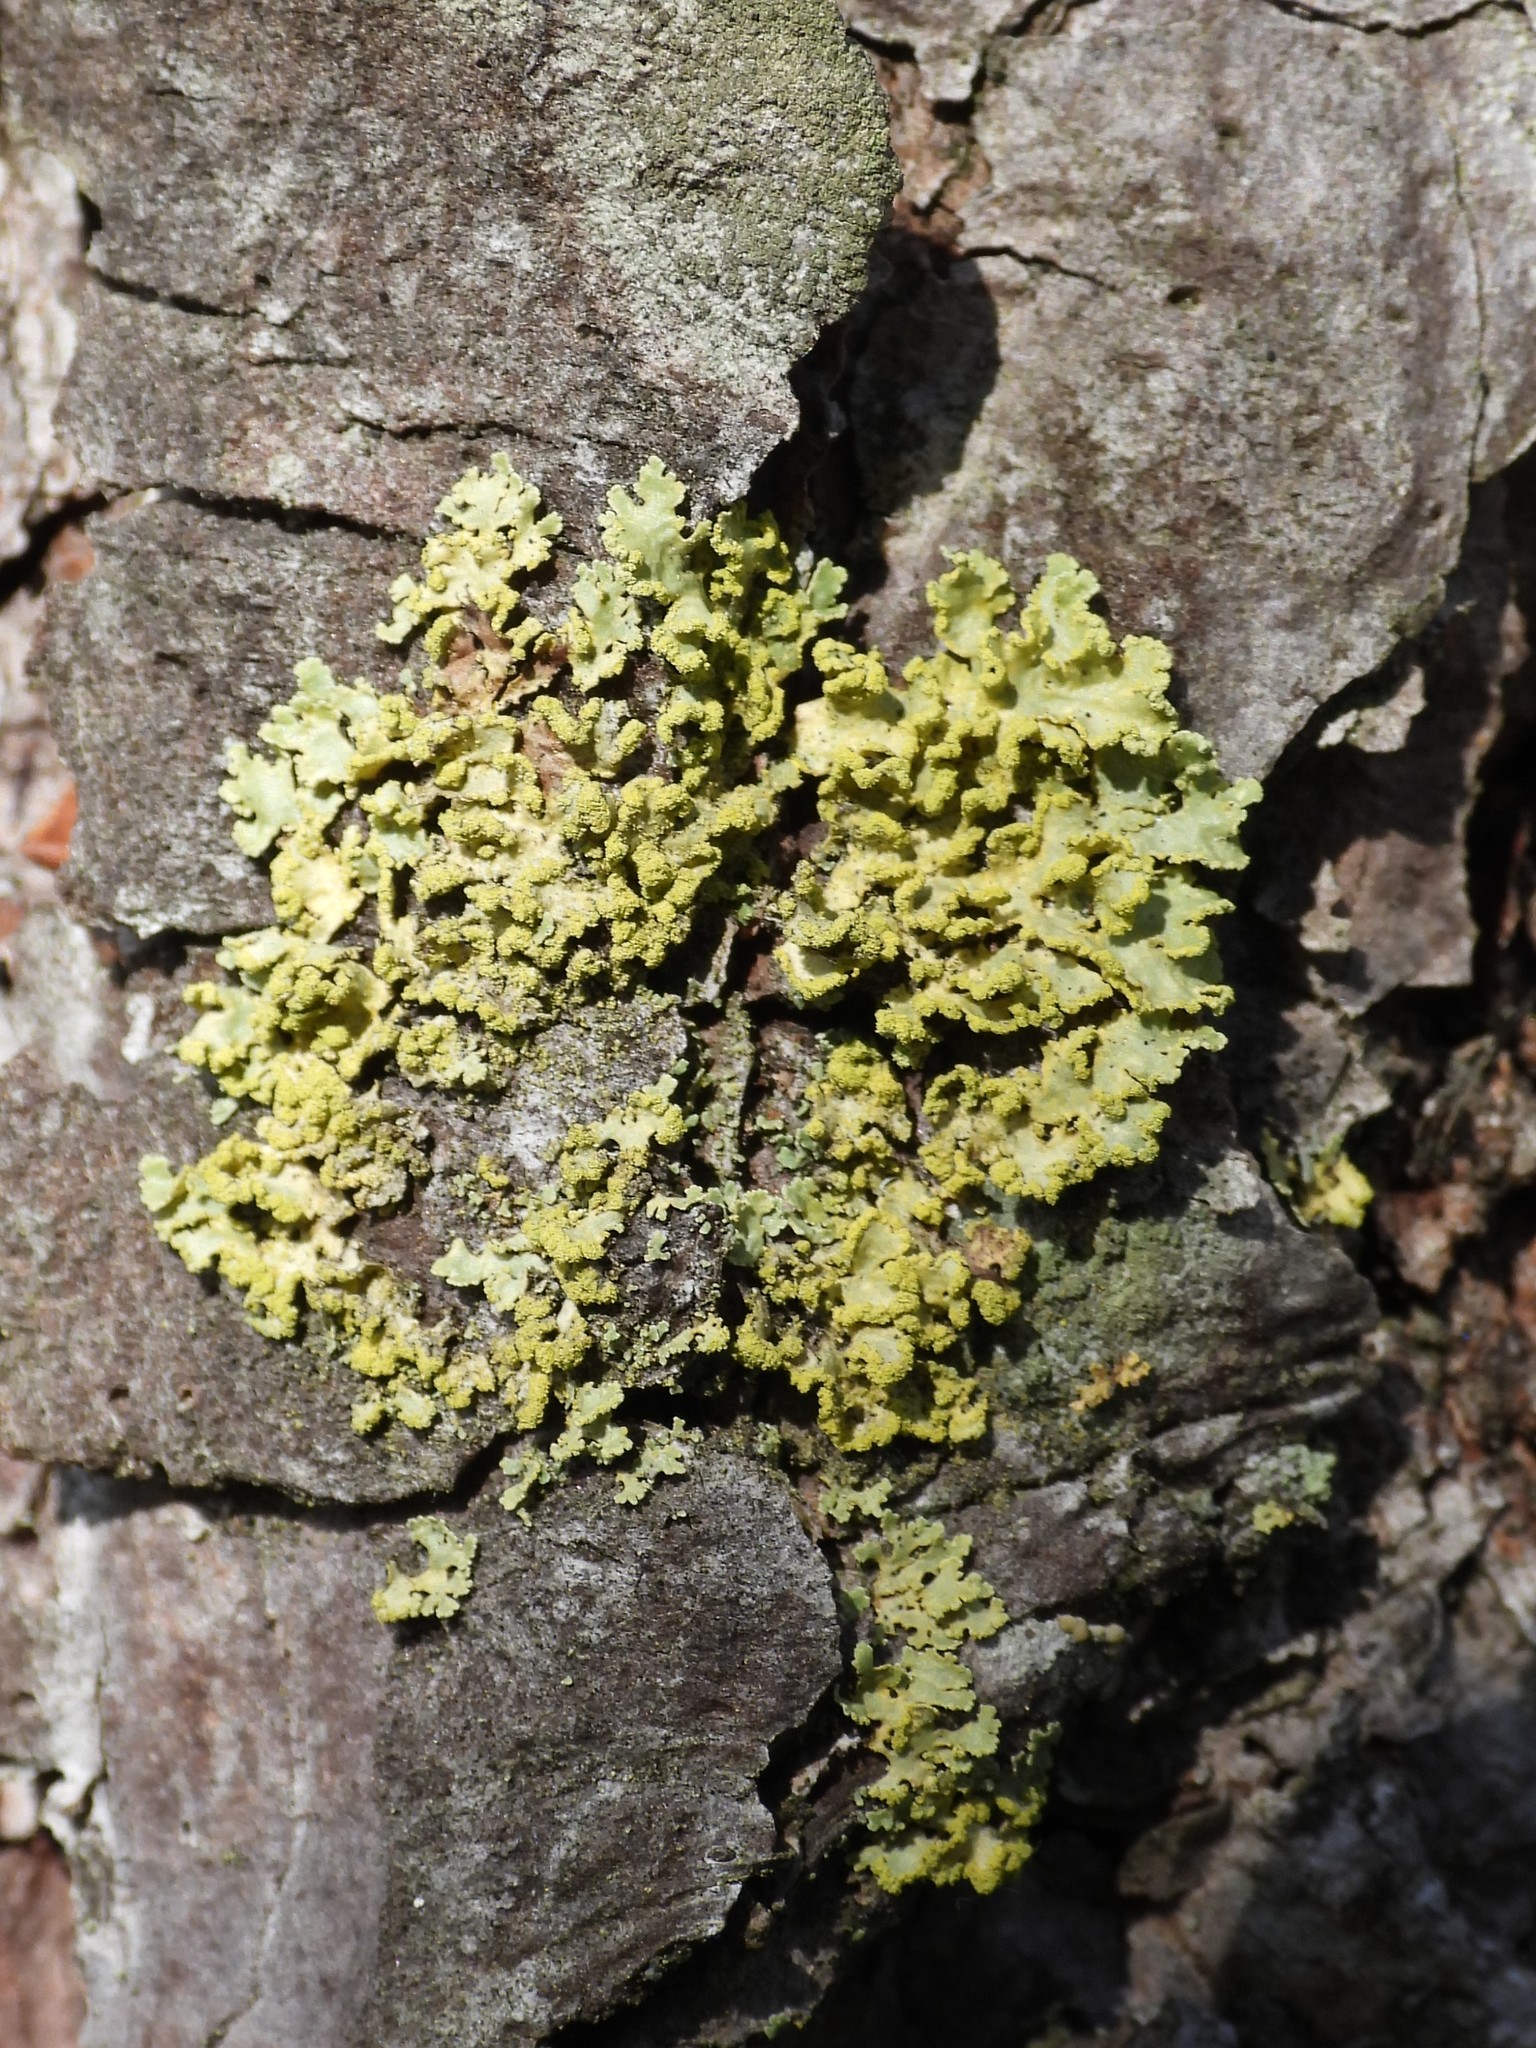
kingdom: Fungi
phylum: Ascomycota
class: Lecanoromycetes
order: Lecanorales
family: Parmeliaceae
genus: Vulpicida
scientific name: Vulpicida pinastri
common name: Powdered sunshine lichen
